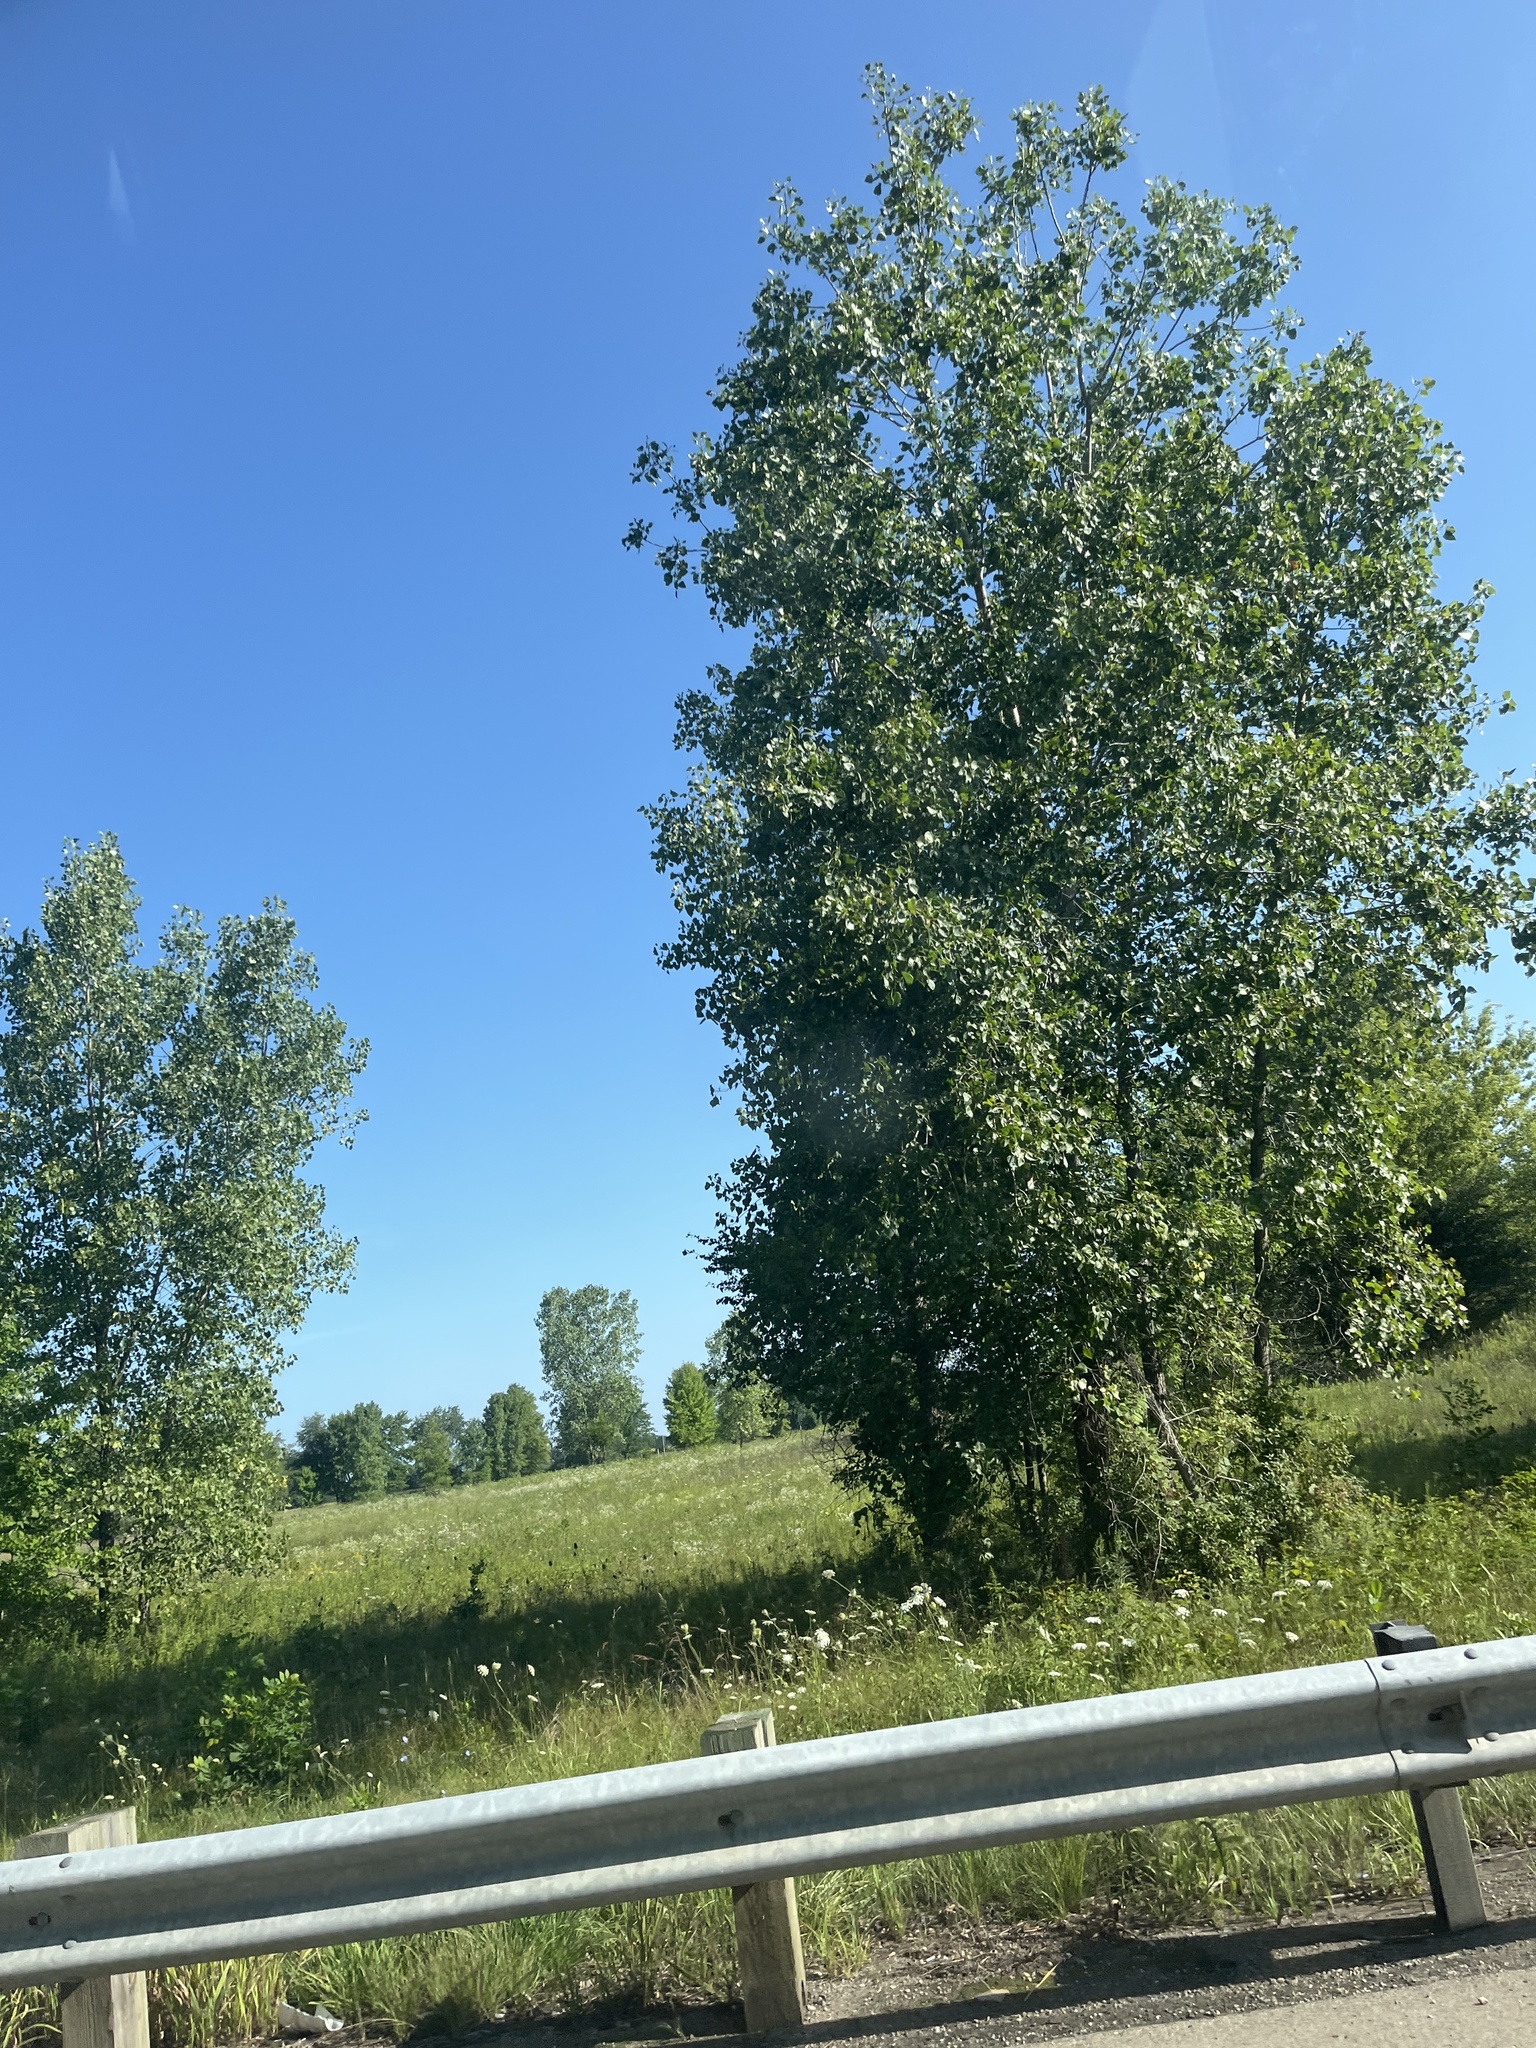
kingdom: Plantae
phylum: Tracheophyta
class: Magnoliopsida
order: Malpighiales
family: Salicaceae
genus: Populus
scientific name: Populus deltoides
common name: Eastern cottonwood
